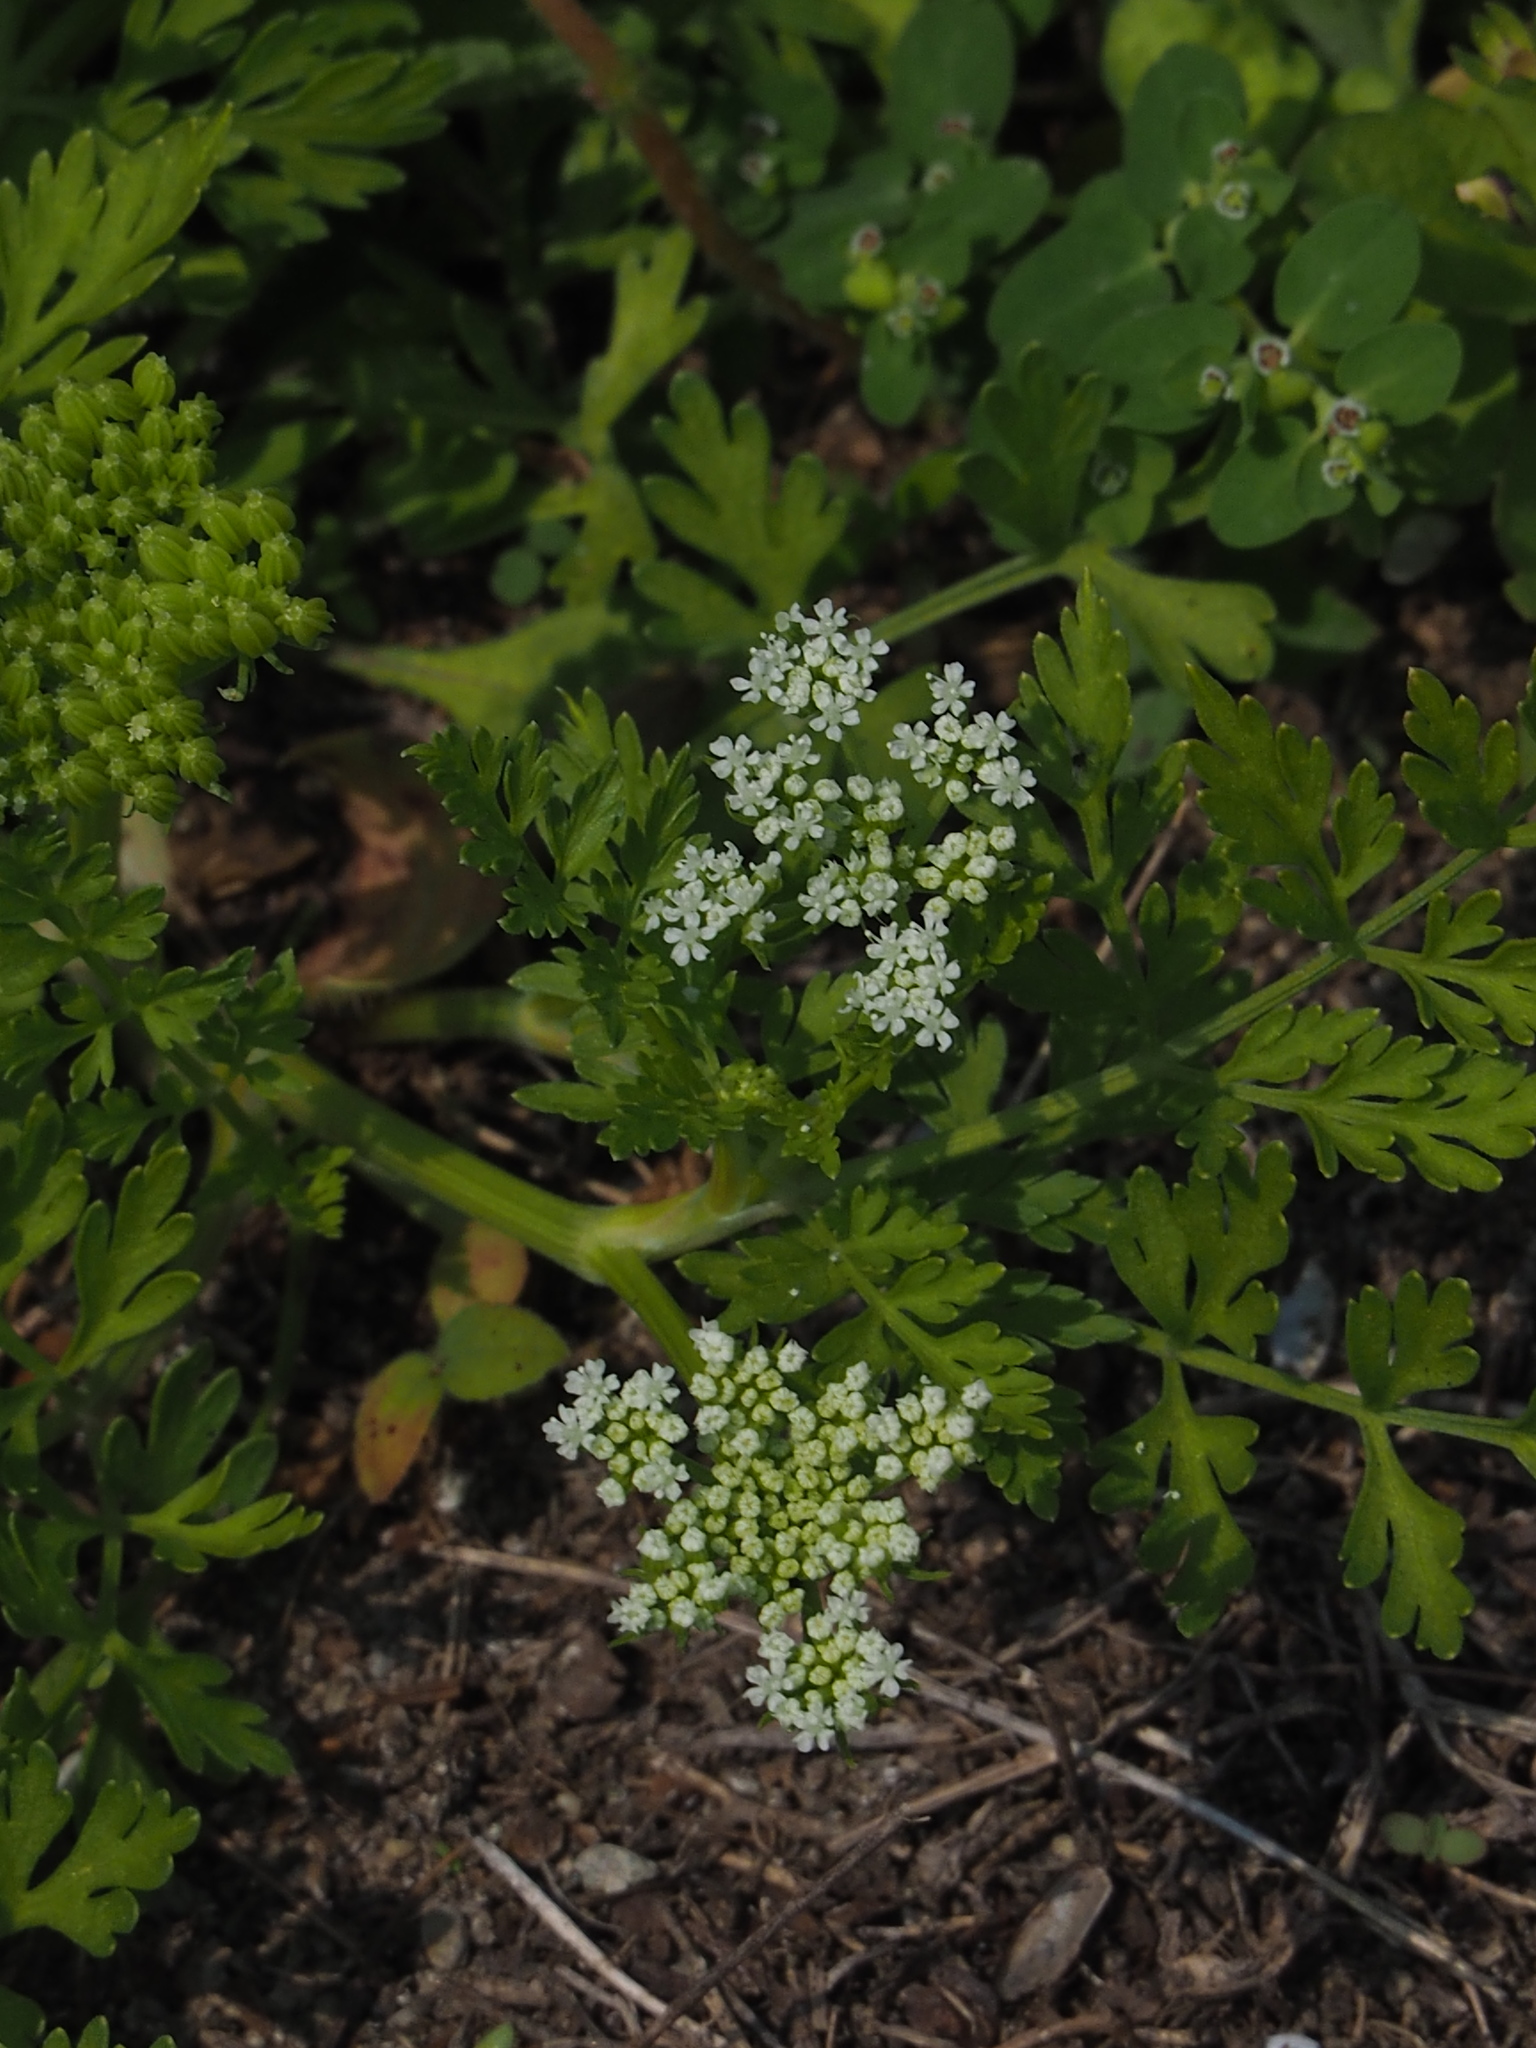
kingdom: Plantae
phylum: Tracheophyta
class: Magnoliopsida
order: Apiales
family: Apiaceae
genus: Cnidium
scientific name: Cnidium monnieri
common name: Monnier's snowparsley
